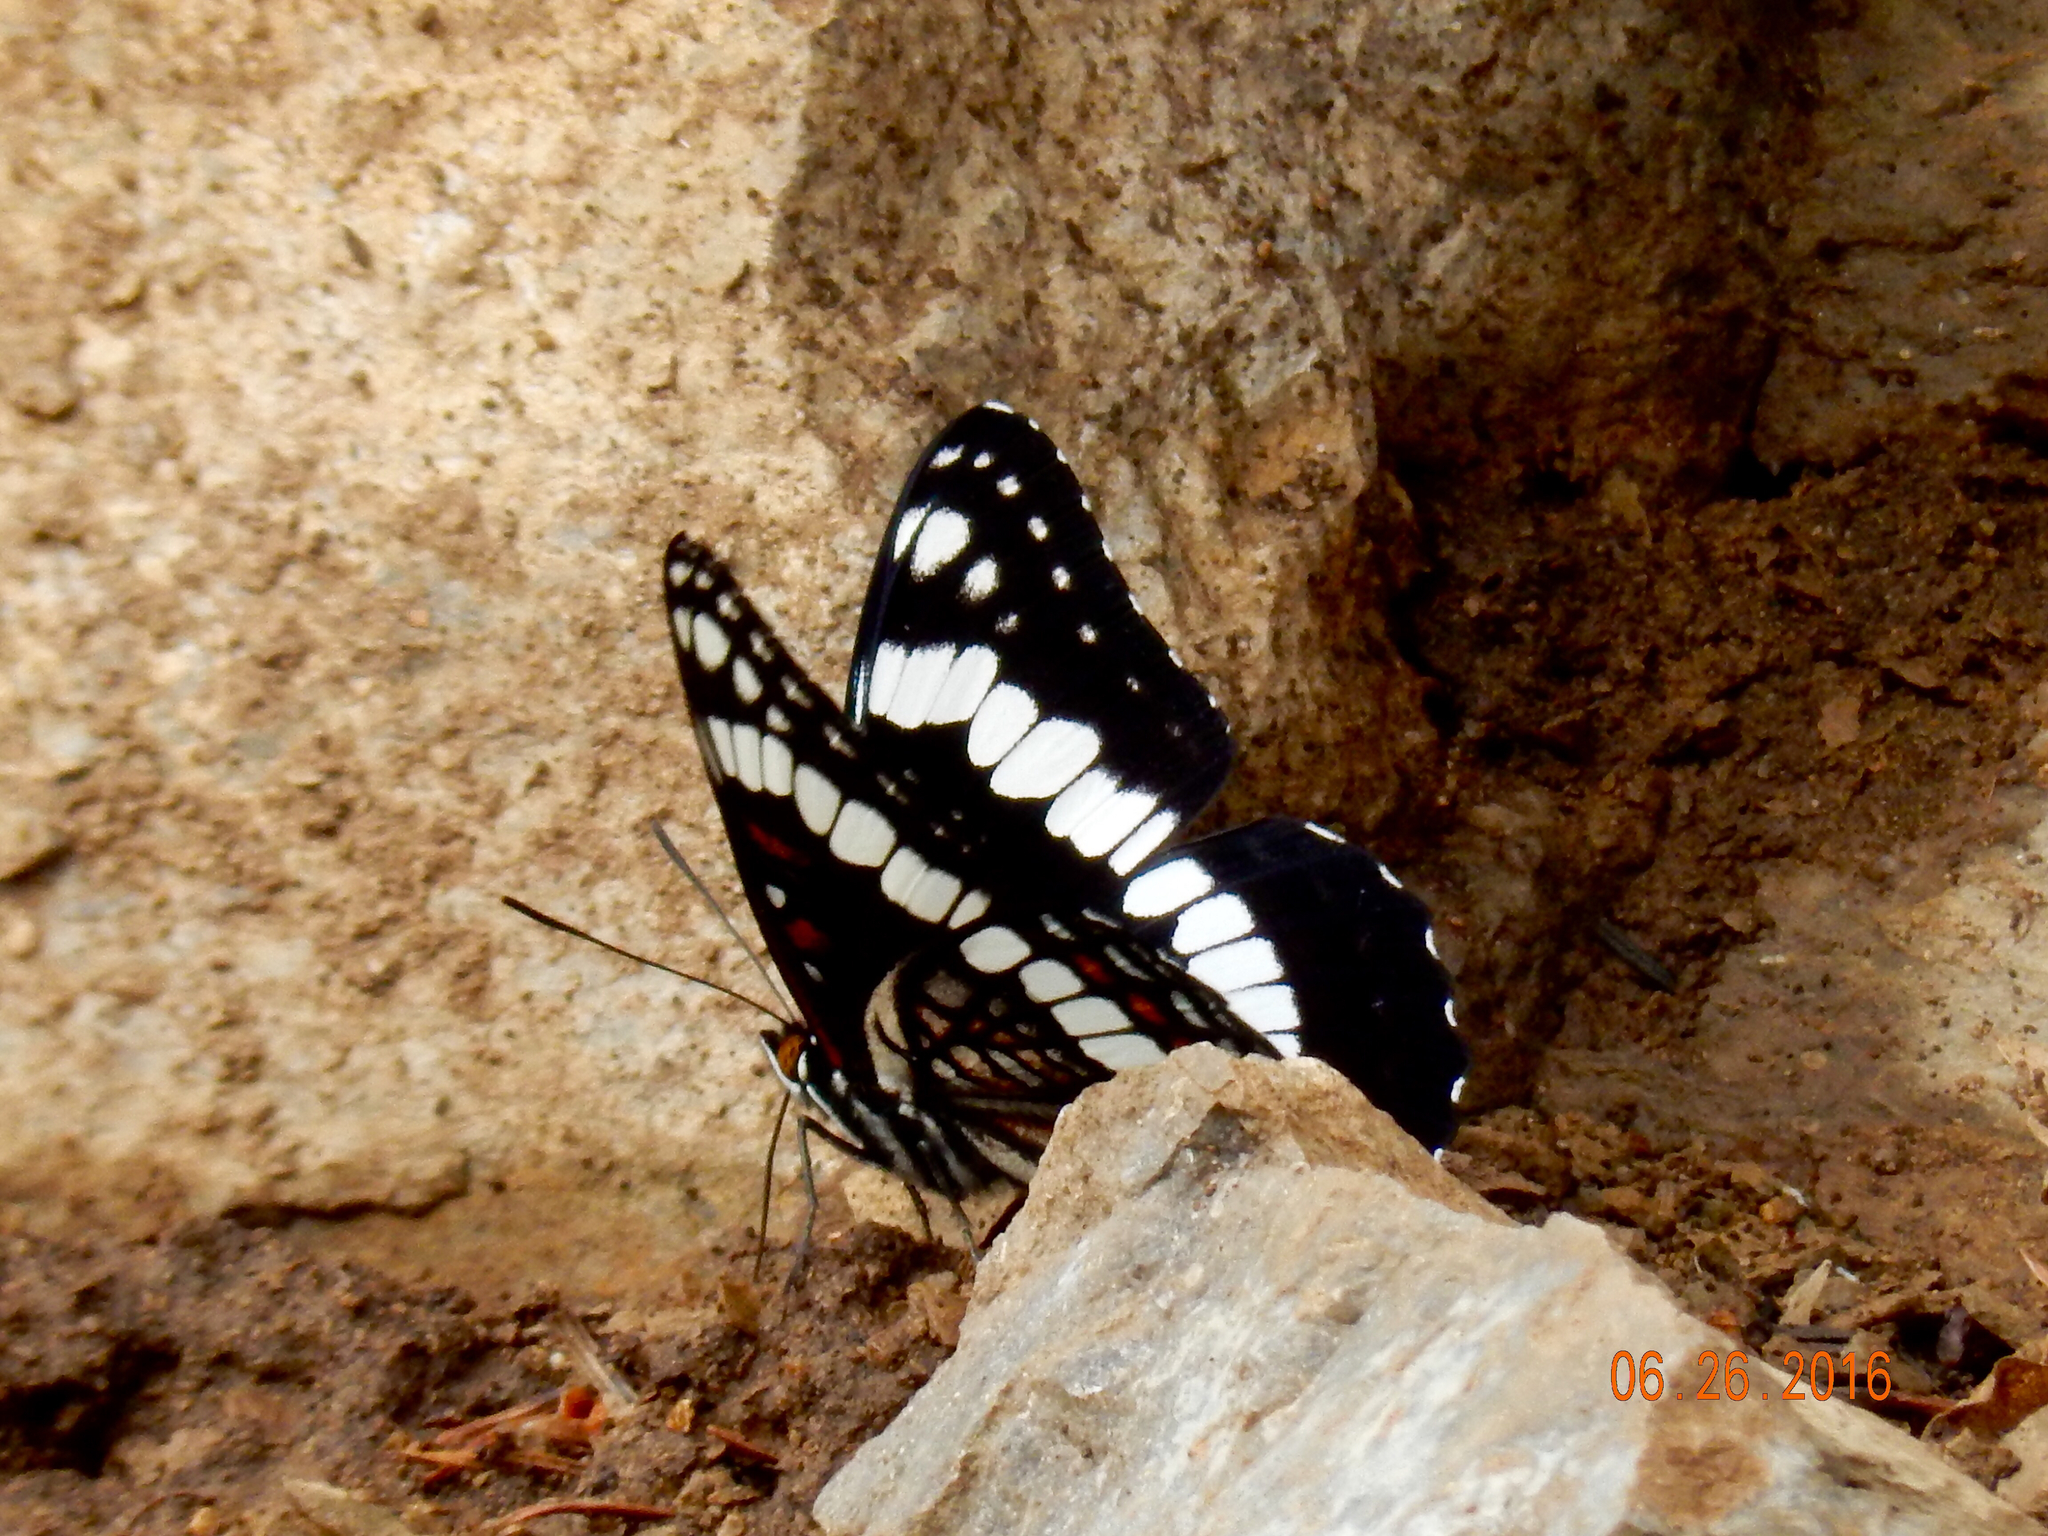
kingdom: Animalia
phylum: Arthropoda
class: Insecta
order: Lepidoptera
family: Nymphalidae
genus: Limenitis
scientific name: Limenitis weidemeyerii
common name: Weidemeyer's admiral
